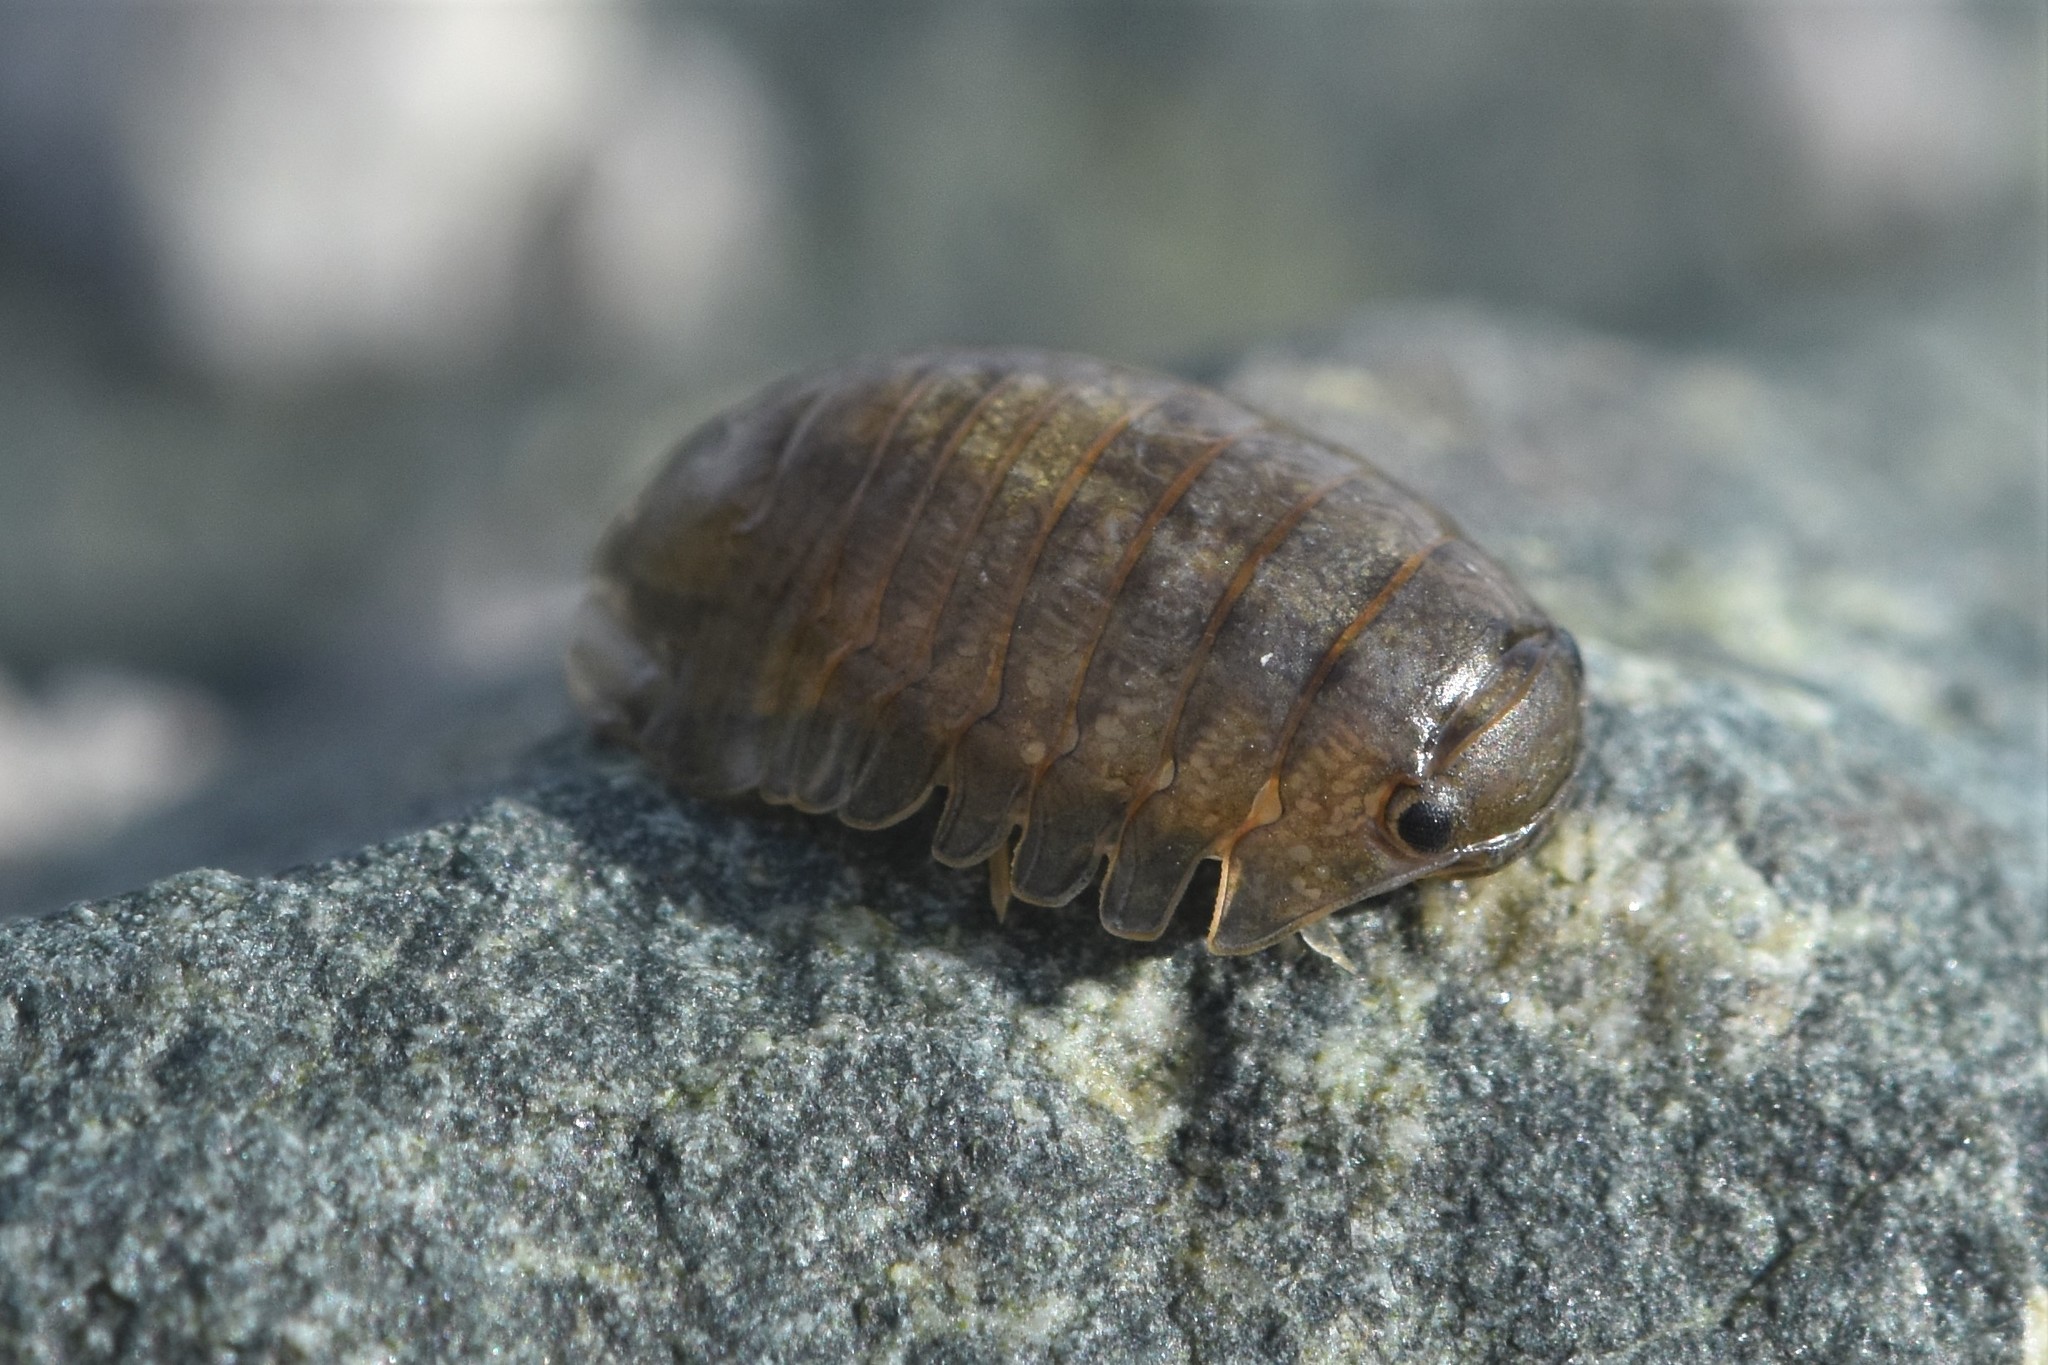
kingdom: Animalia
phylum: Arthropoda
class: Malacostraca
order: Isopoda
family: Sphaeromatidae
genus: Gnorimosphaeroma
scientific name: Gnorimosphaeroma oregonense
